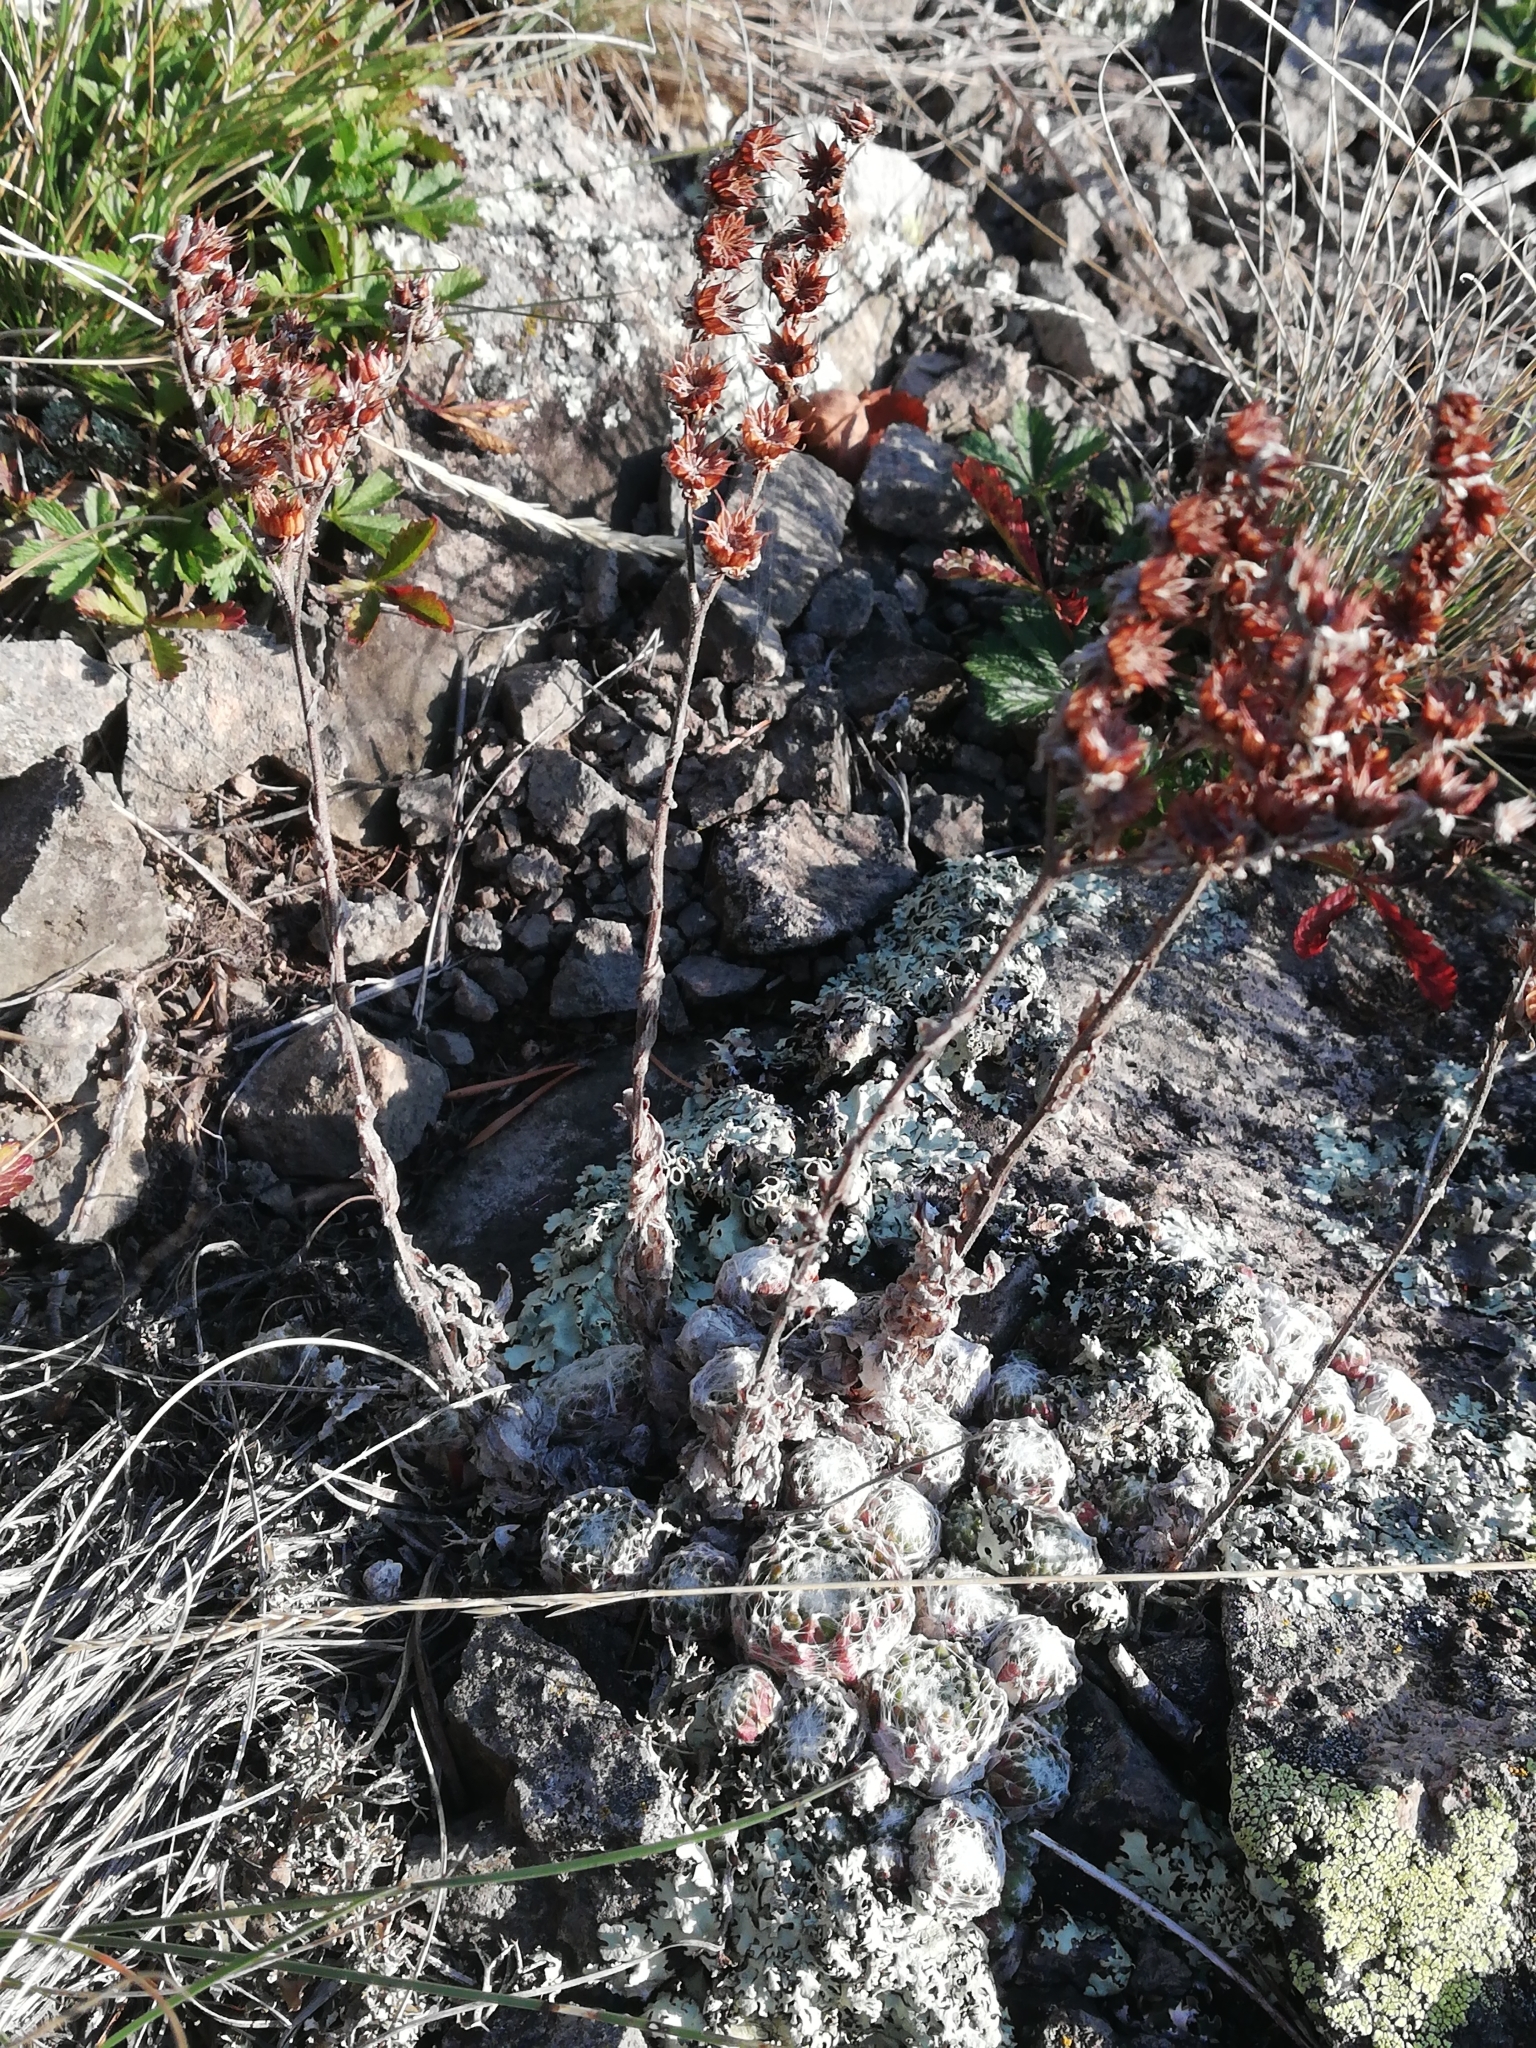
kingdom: Plantae
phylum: Tracheophyta
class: Magnoliopsida
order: Saxifragales
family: Crassulaceae
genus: Sempervivum
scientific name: Sempervivum arachnoideum
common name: Cobweb house-leek
